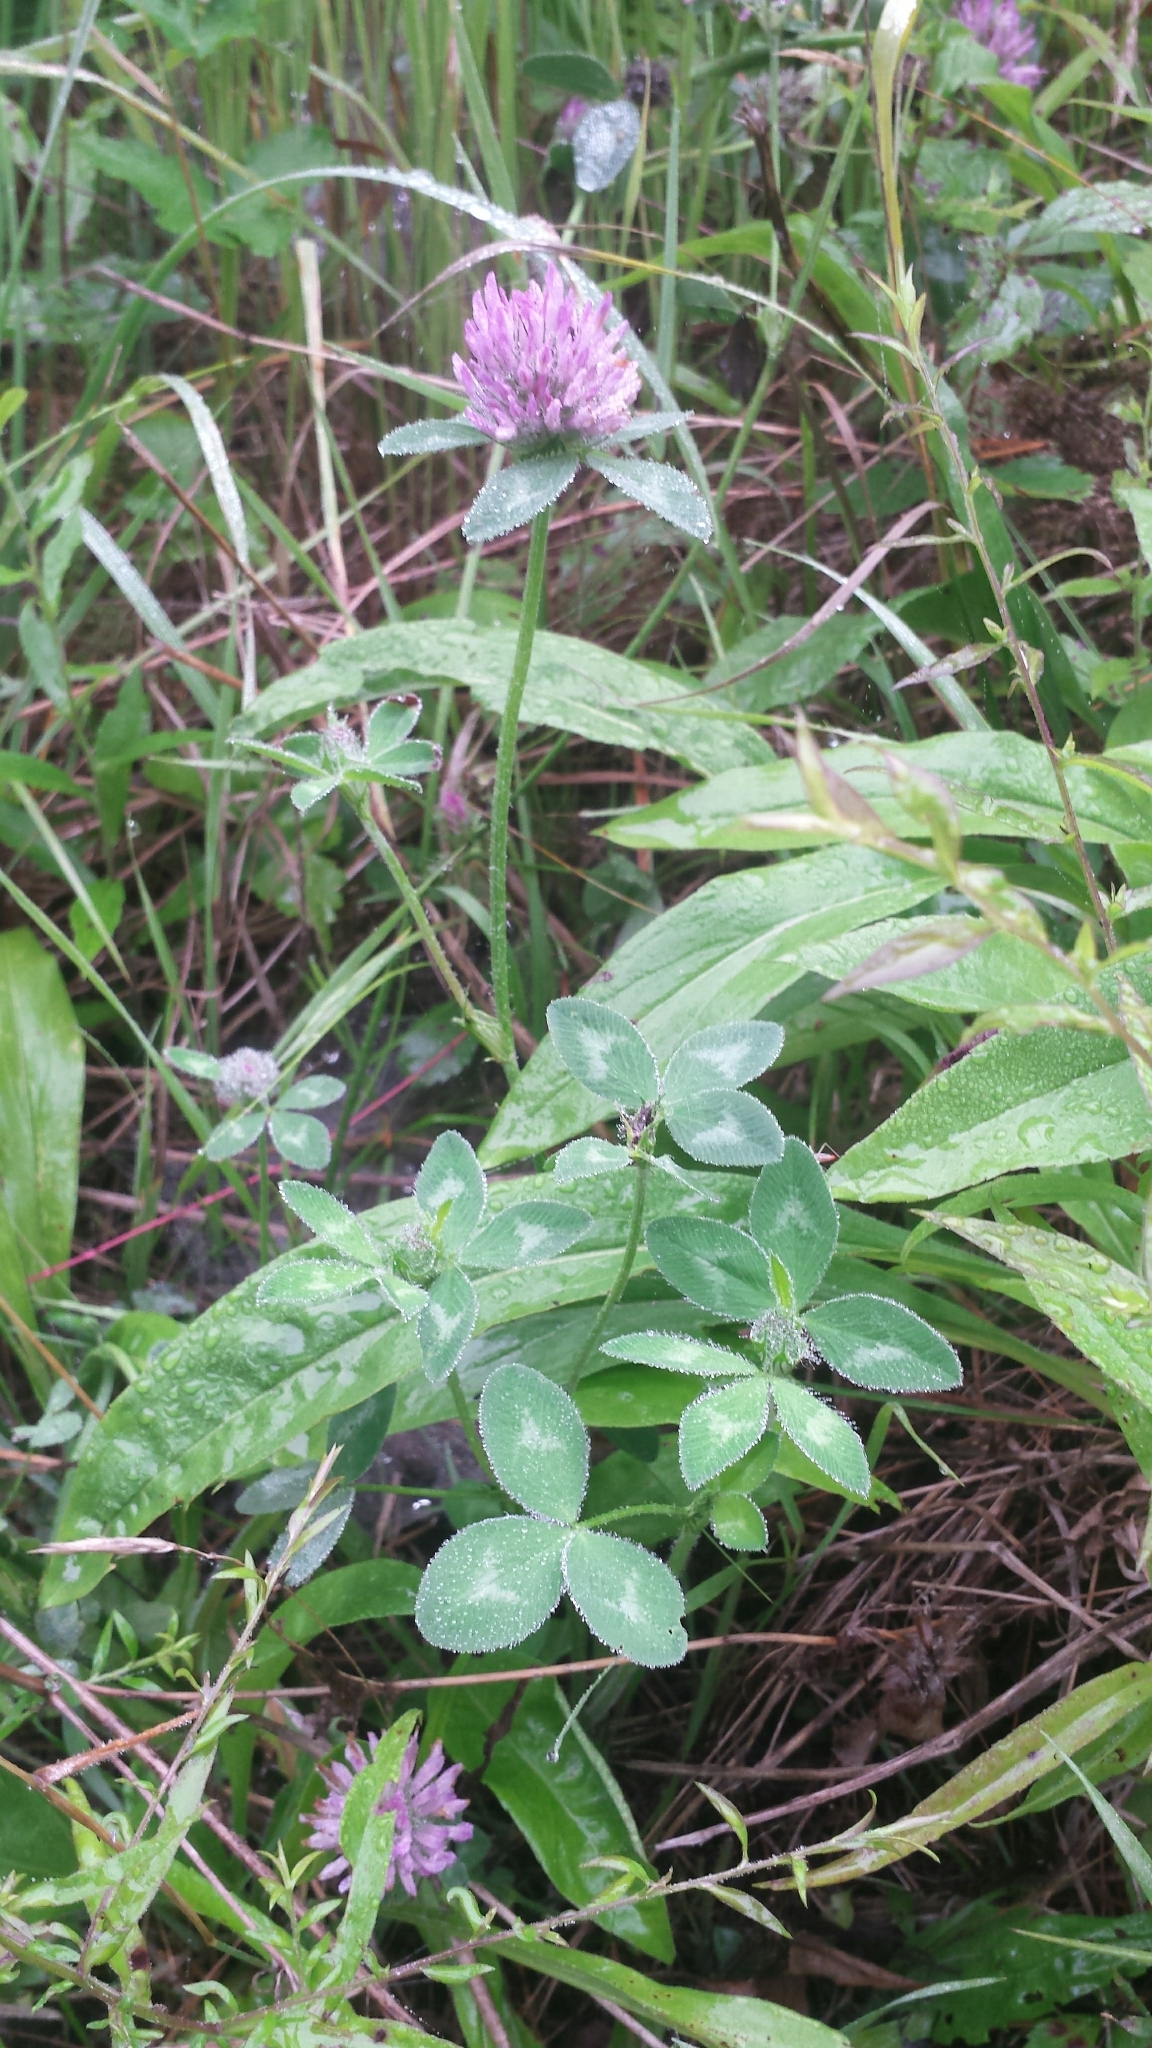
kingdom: Plantae
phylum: Tracheophyta
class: Magnoliopsida
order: Fabales
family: Fabaceae
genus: Trifolium
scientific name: Trifolium pratense
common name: Red clover
